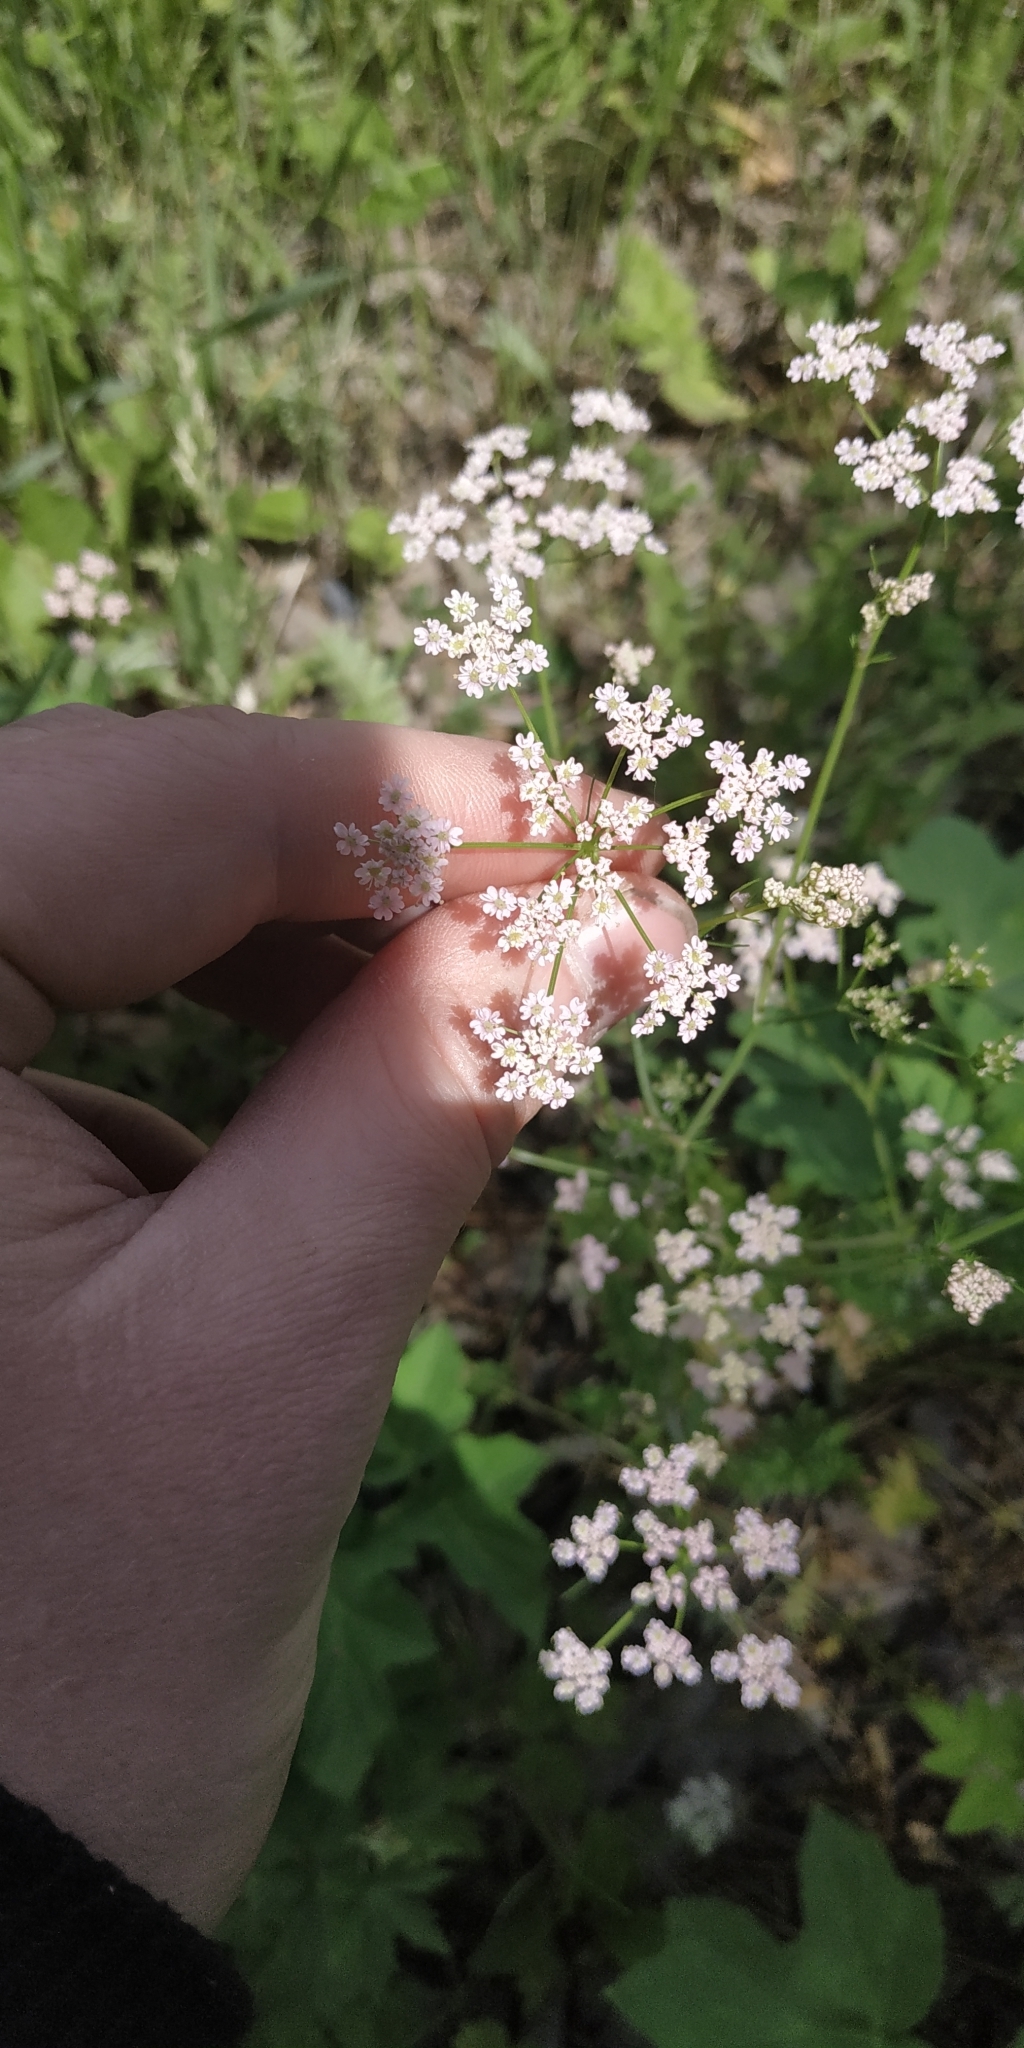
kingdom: Plantae
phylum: Tracheophyta
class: Magnoliopsida
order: Apiales
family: Apiaceae
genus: Carum
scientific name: Carum carvi
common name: Caraway
